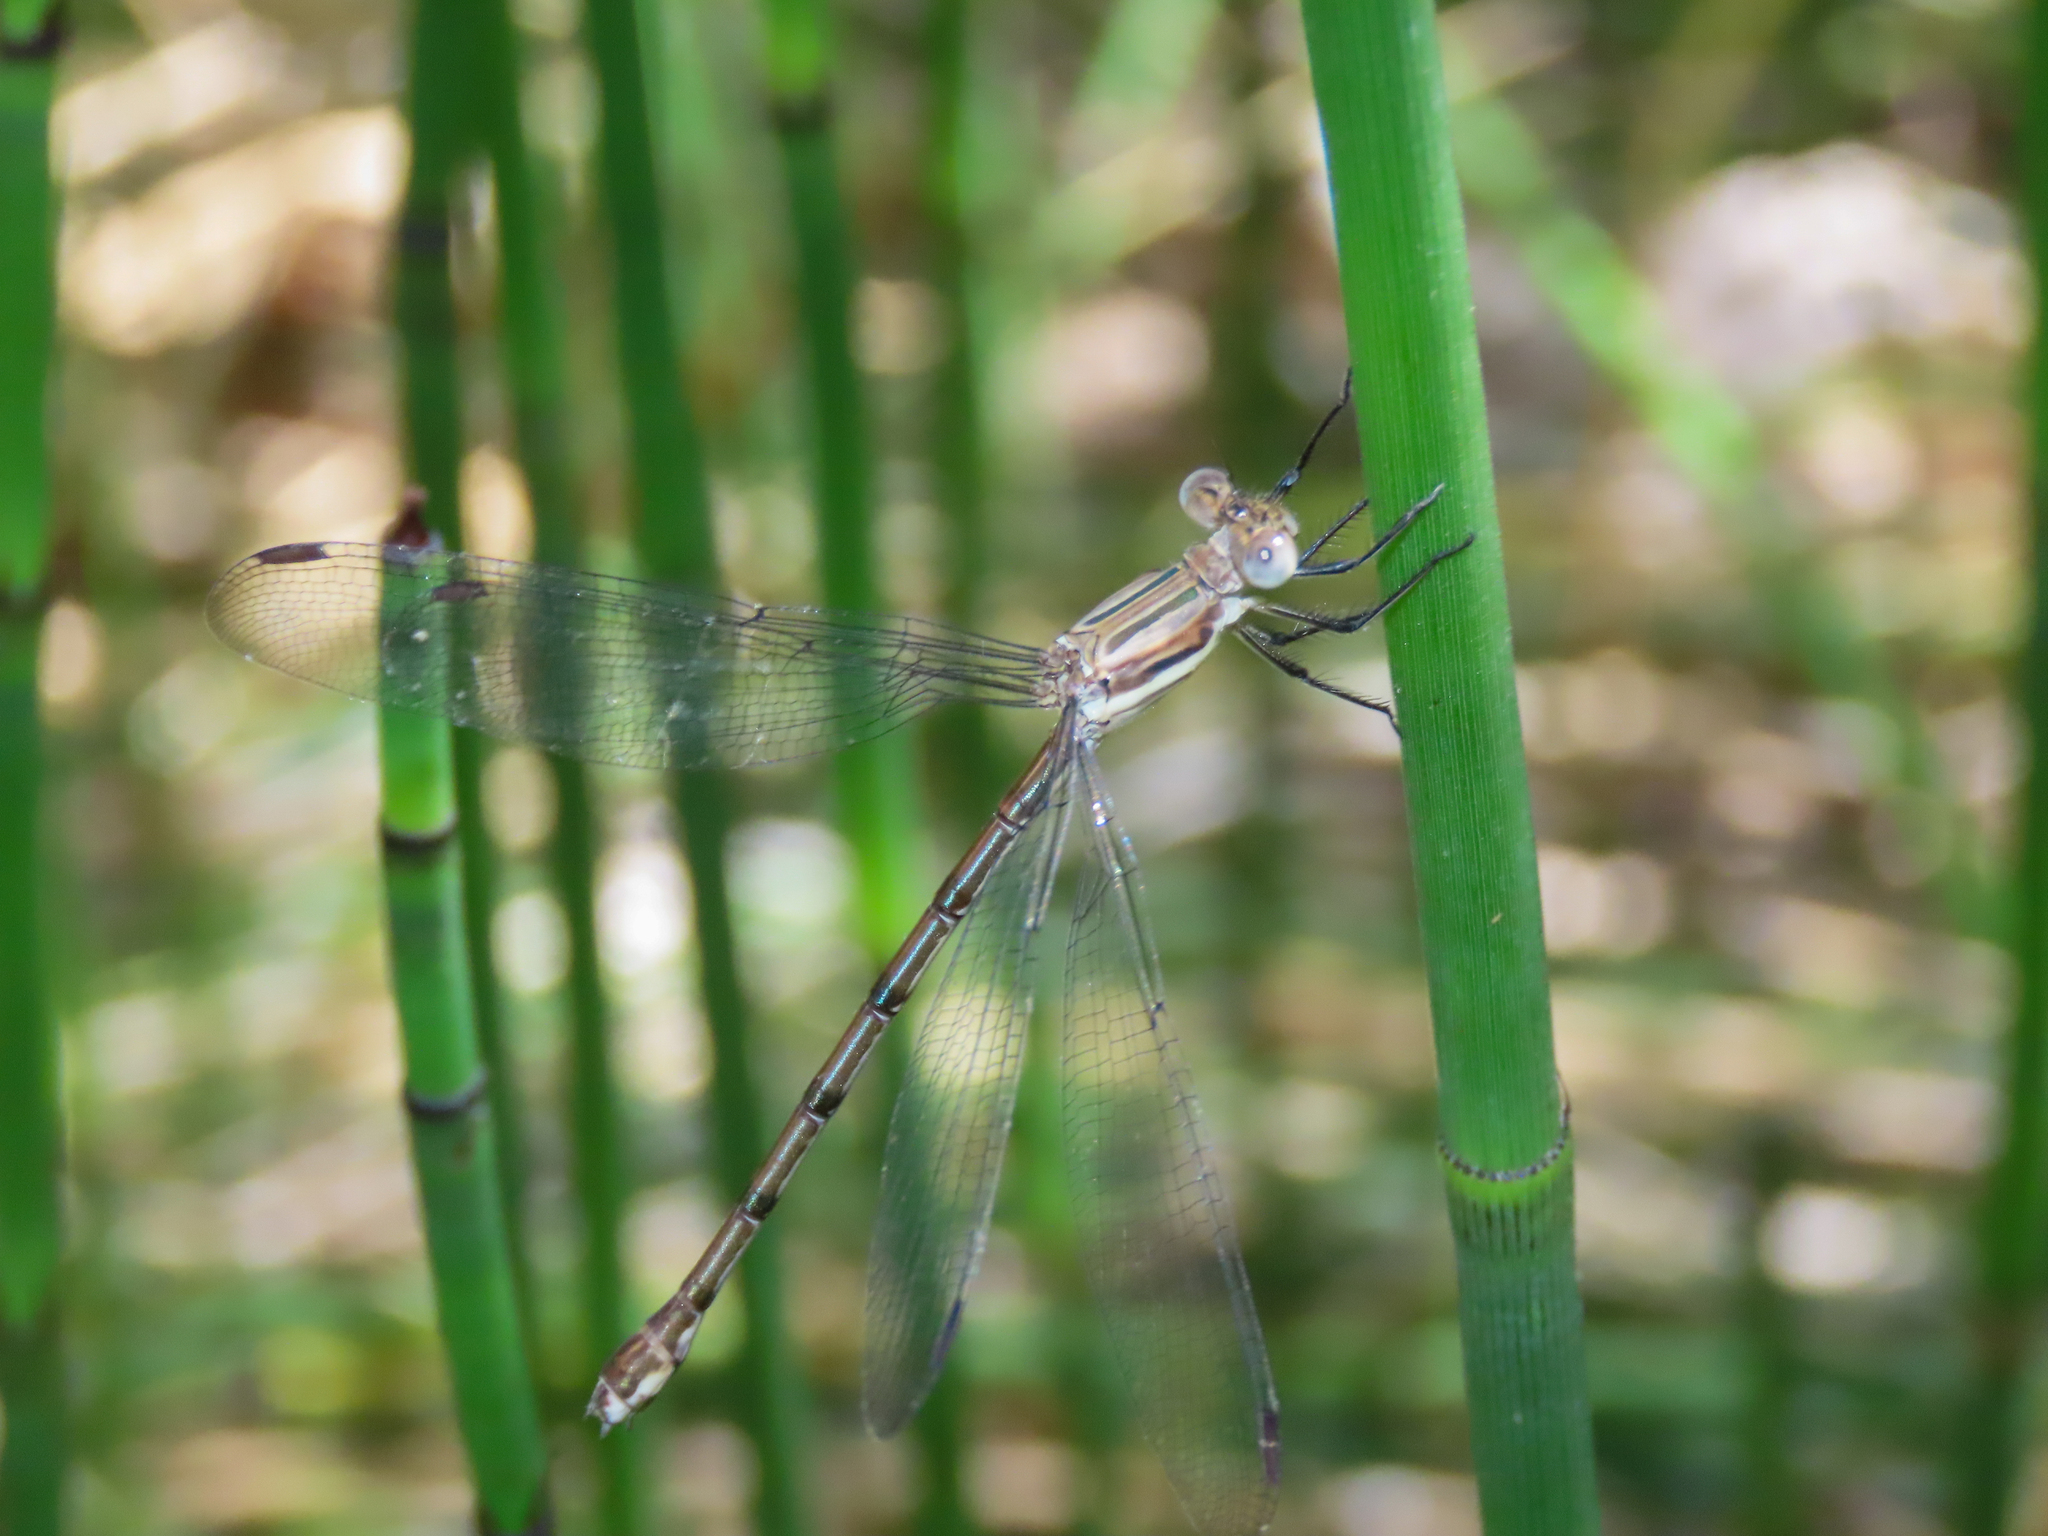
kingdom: Animalia
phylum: Arthropoda
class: Insecta
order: Odonata
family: Lestidae
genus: Archilestes
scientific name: Archilestes grandis
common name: Great spreadwing
